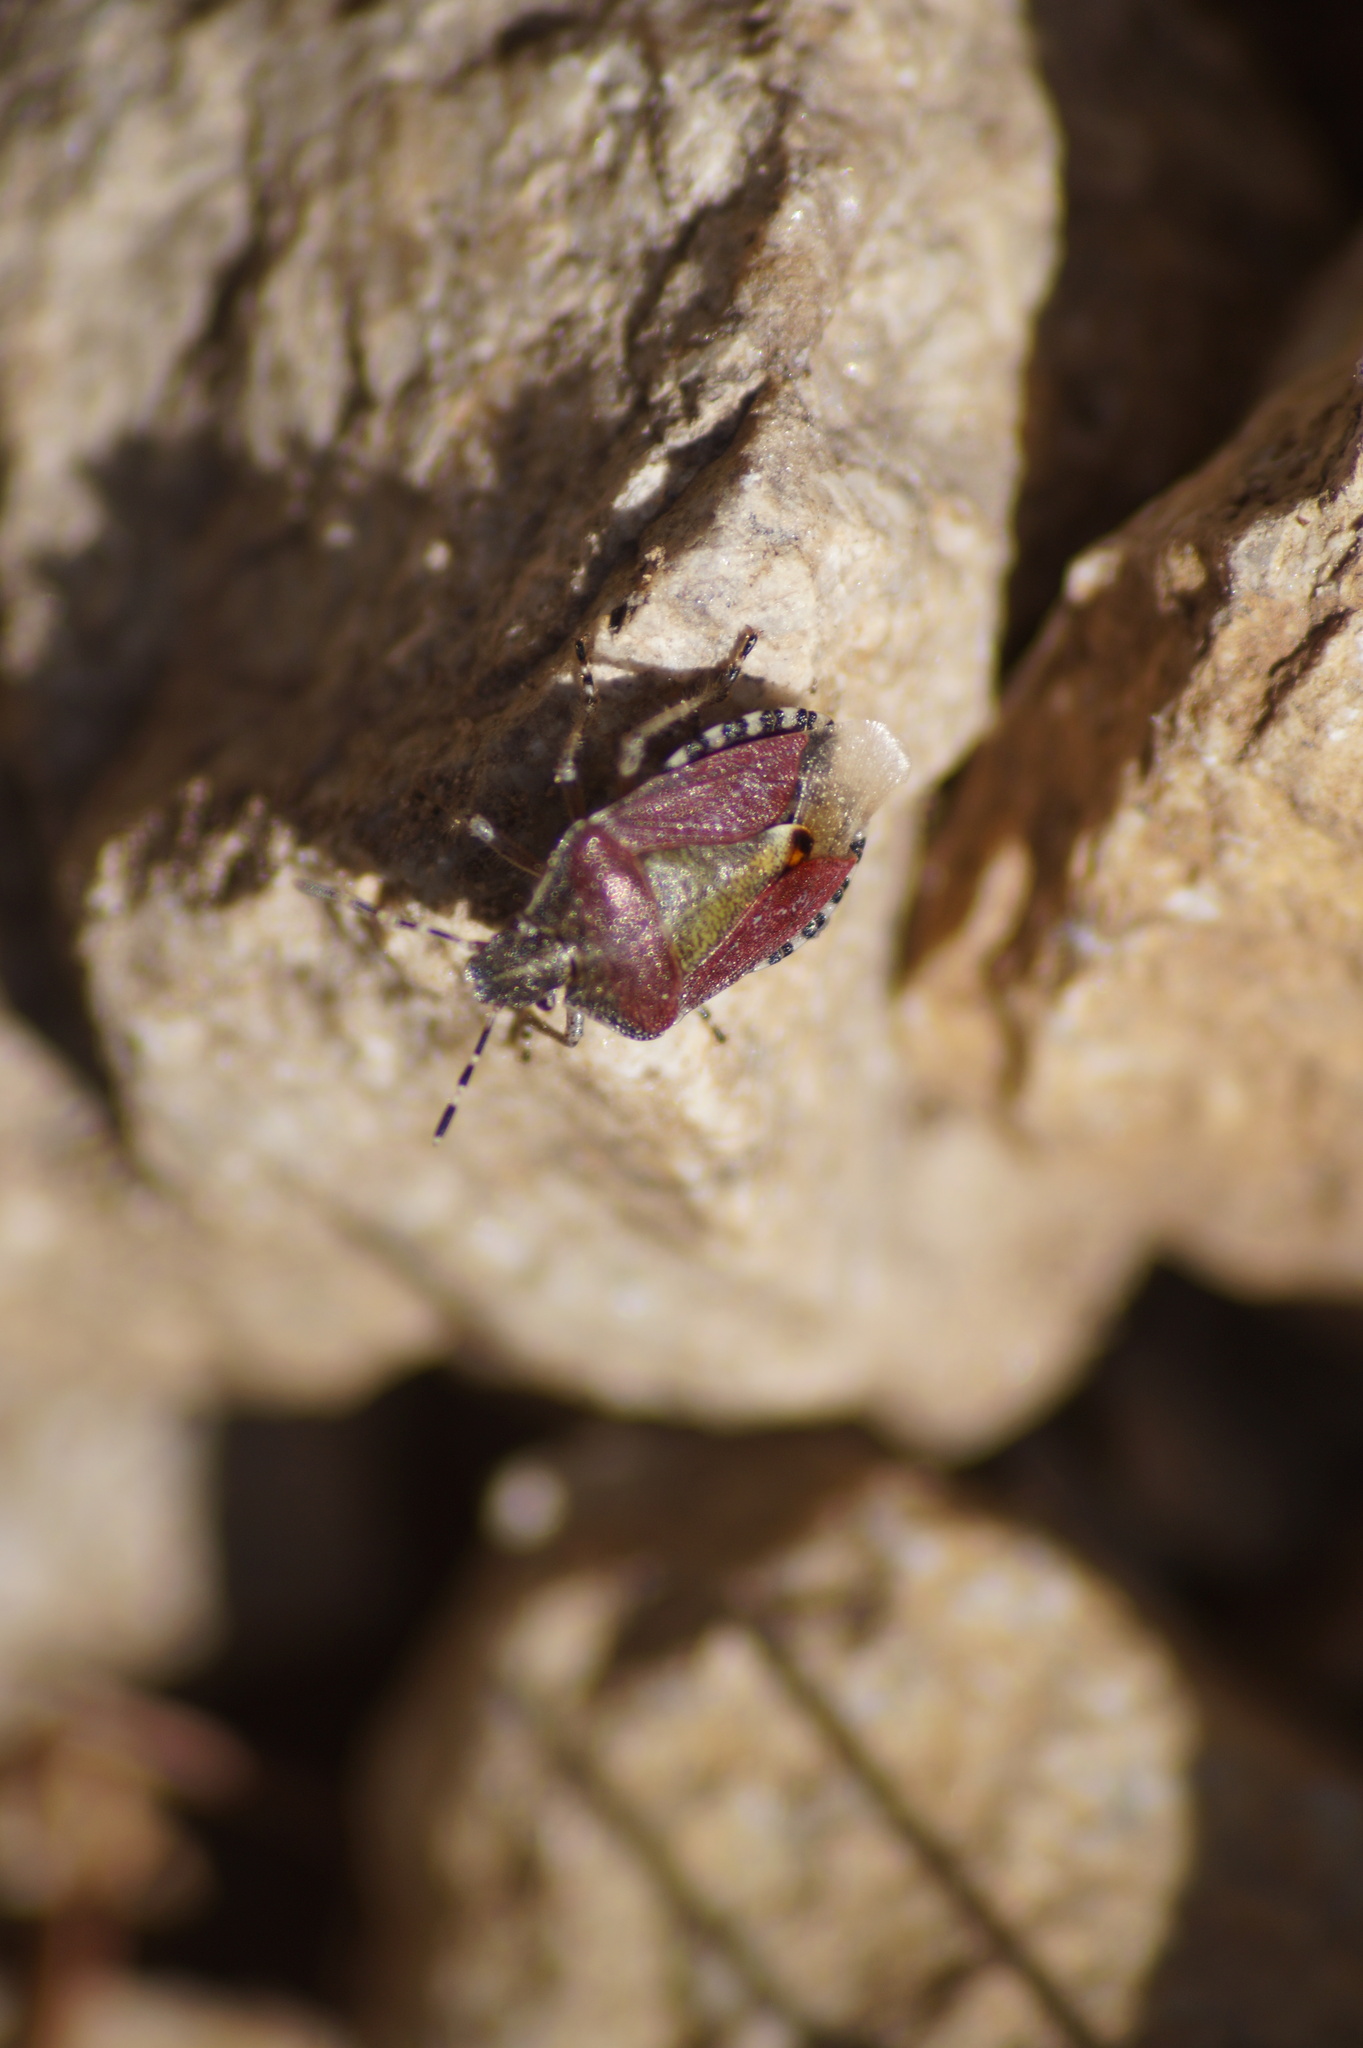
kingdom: Animalia
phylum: Arthropoda
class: Insecta
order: Hemiptera
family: Pentatomidae
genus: Dolycoris
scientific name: Dolycoris baccarum
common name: Sloe bug
